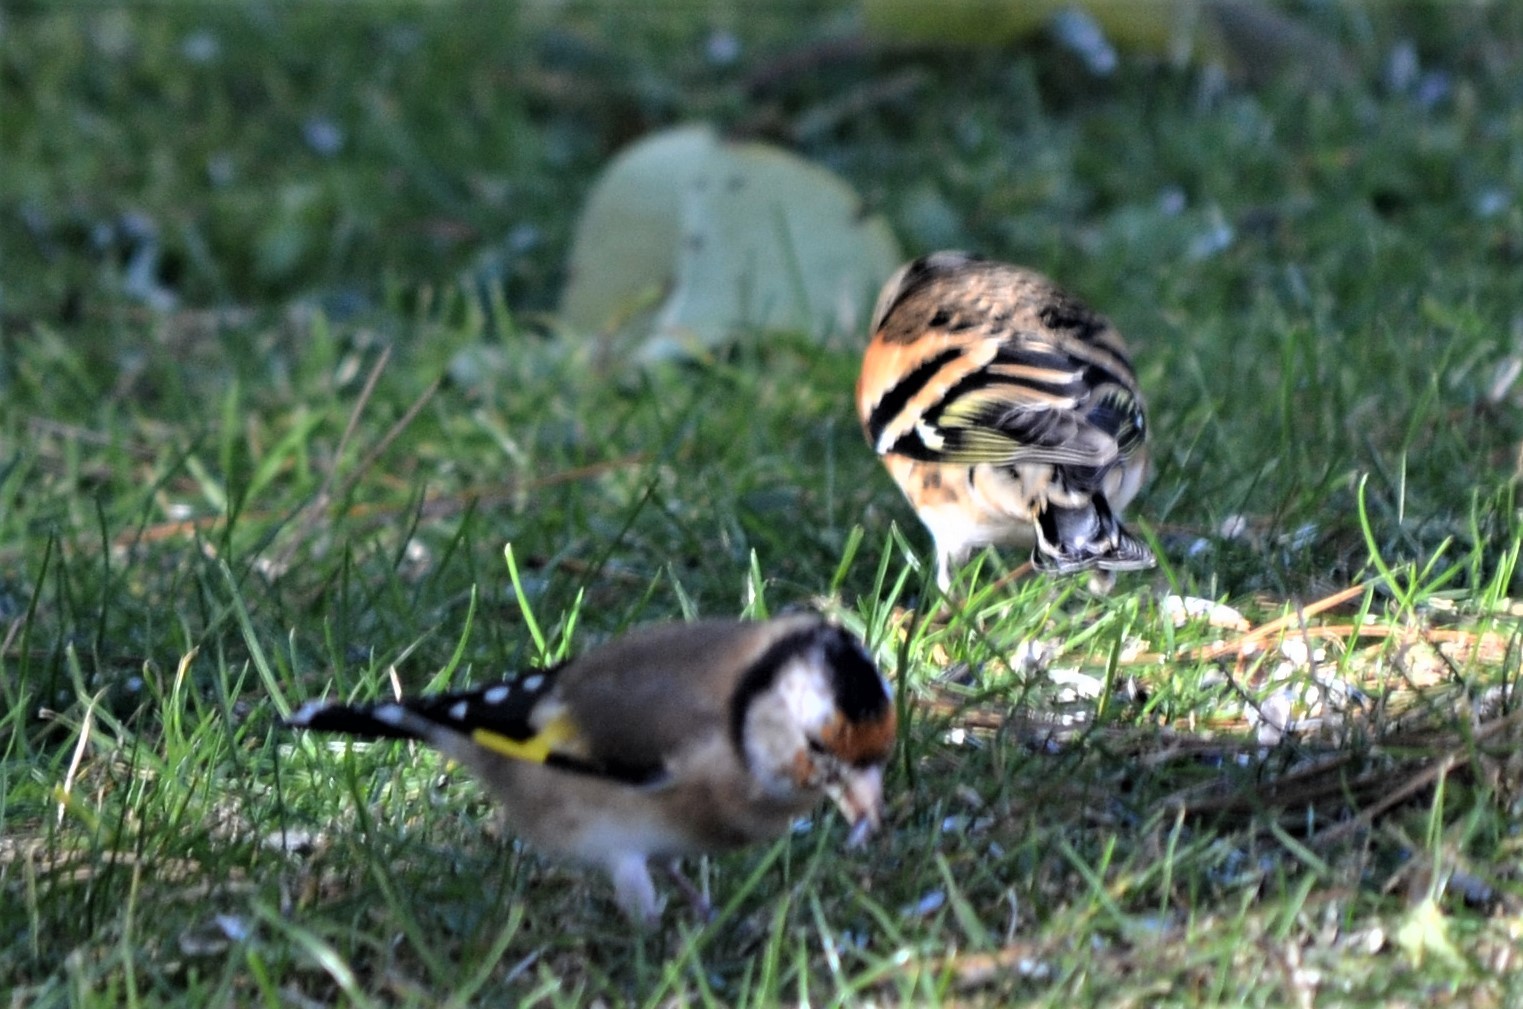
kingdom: Animalia
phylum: Chordata
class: Aves
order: Passeriformes
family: Fringillidae
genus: Fringilla
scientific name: Fringilla montifringilla
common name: Brambling
